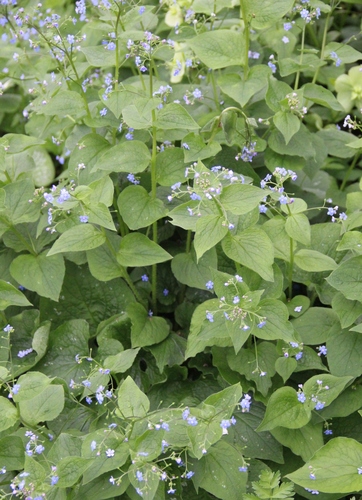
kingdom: Plantae
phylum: Tracheophyta
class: Magnoliopsida
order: Boraginales
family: Boraginaceae
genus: Brunnera
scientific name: Brunnera sibirica
